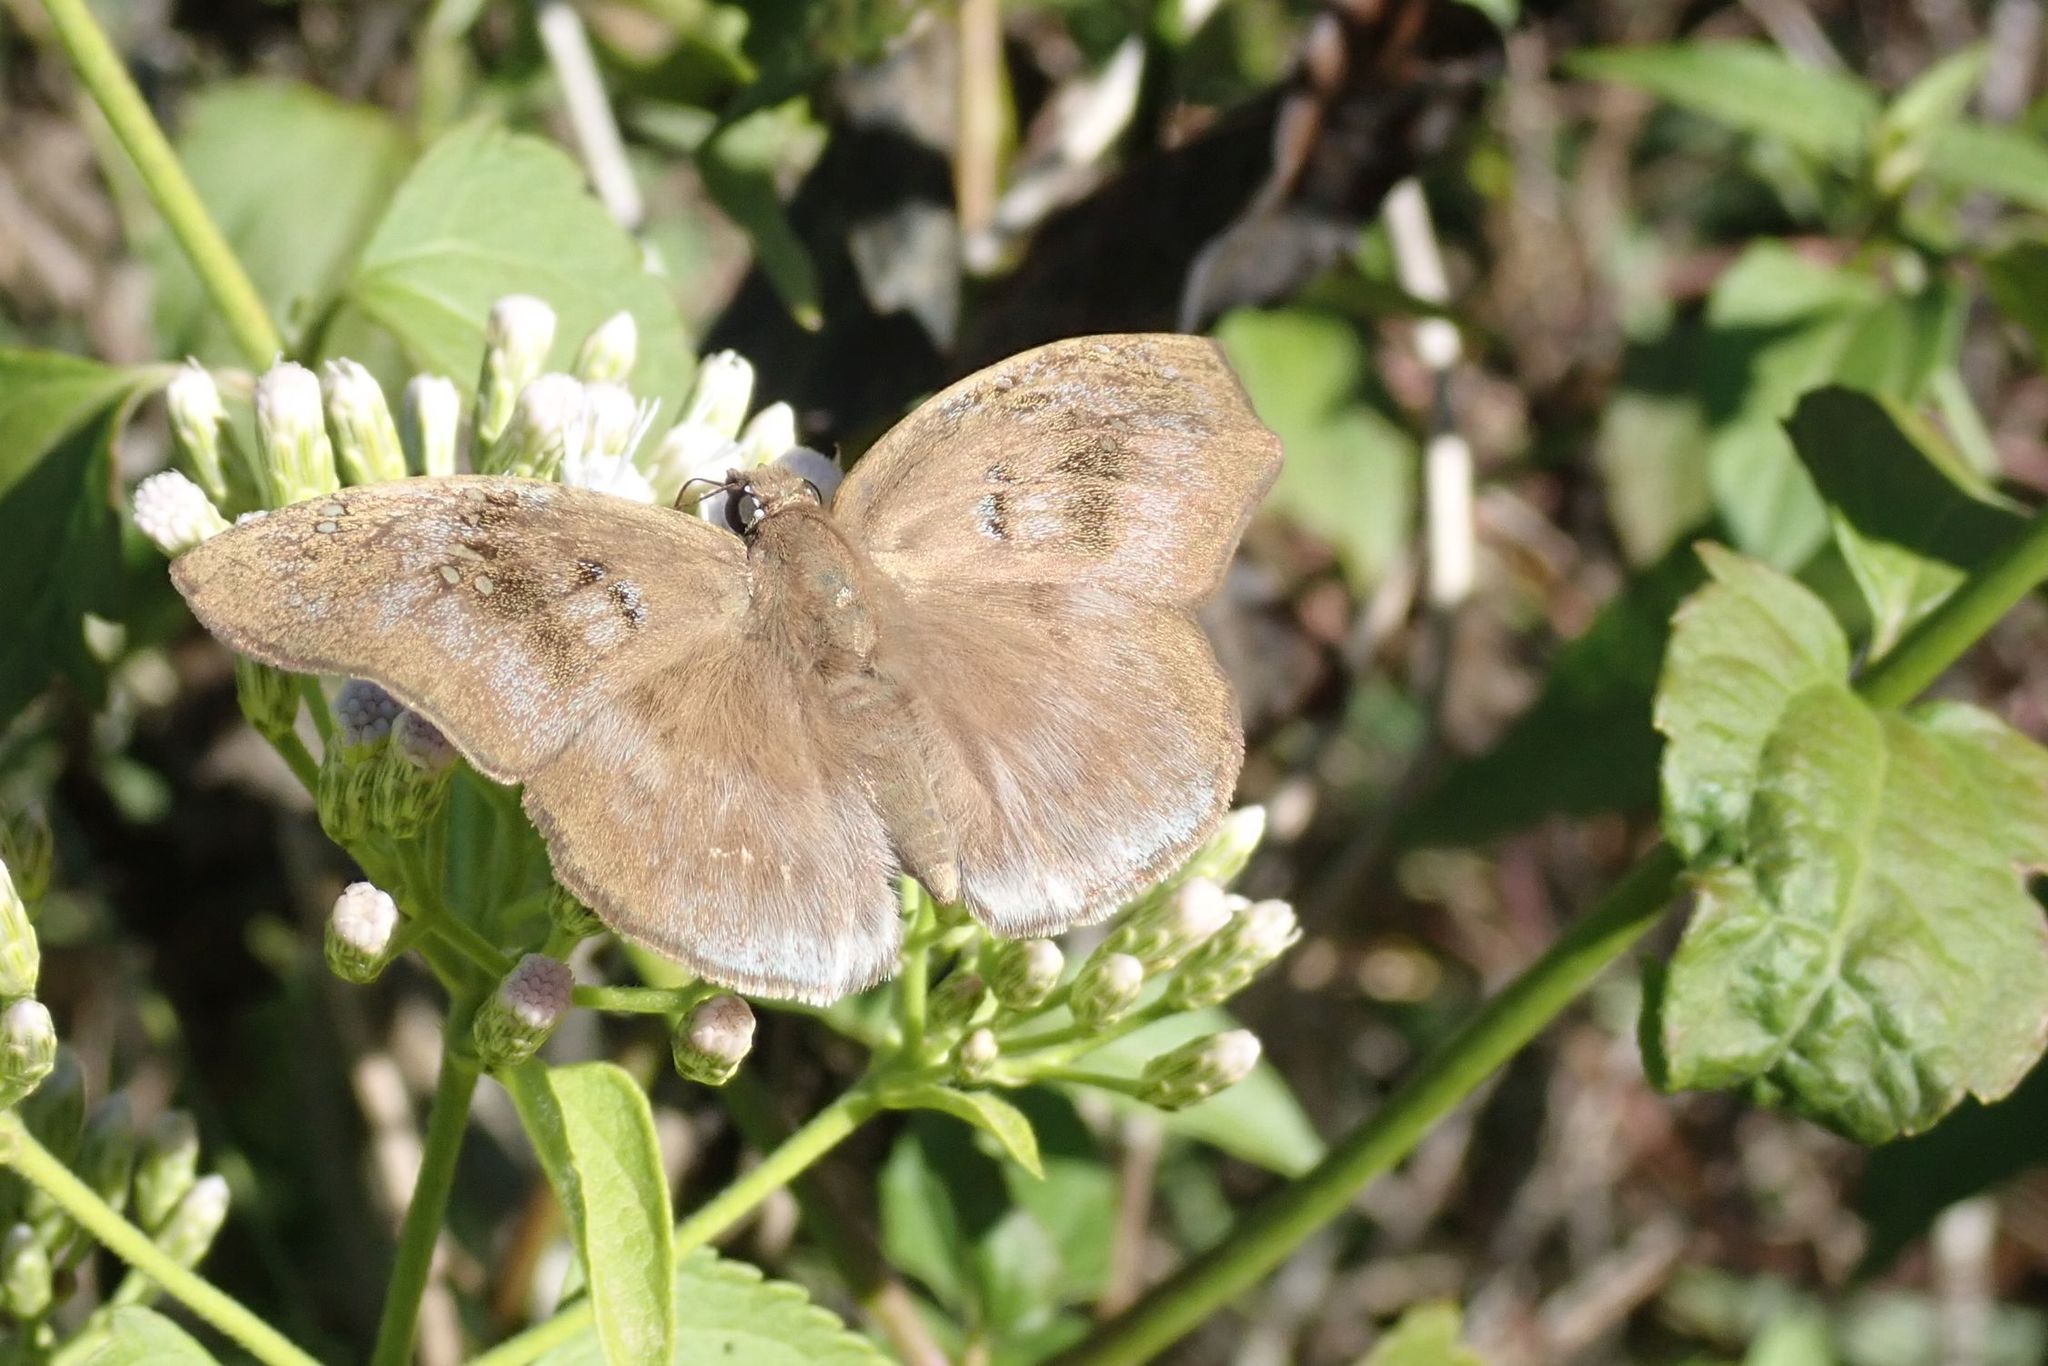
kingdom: Animalia
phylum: Arthropoda
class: Insecta
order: Lepidoptera
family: Hesperiidae
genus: Tagiades
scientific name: Tagiades flesus
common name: Clouded flat
